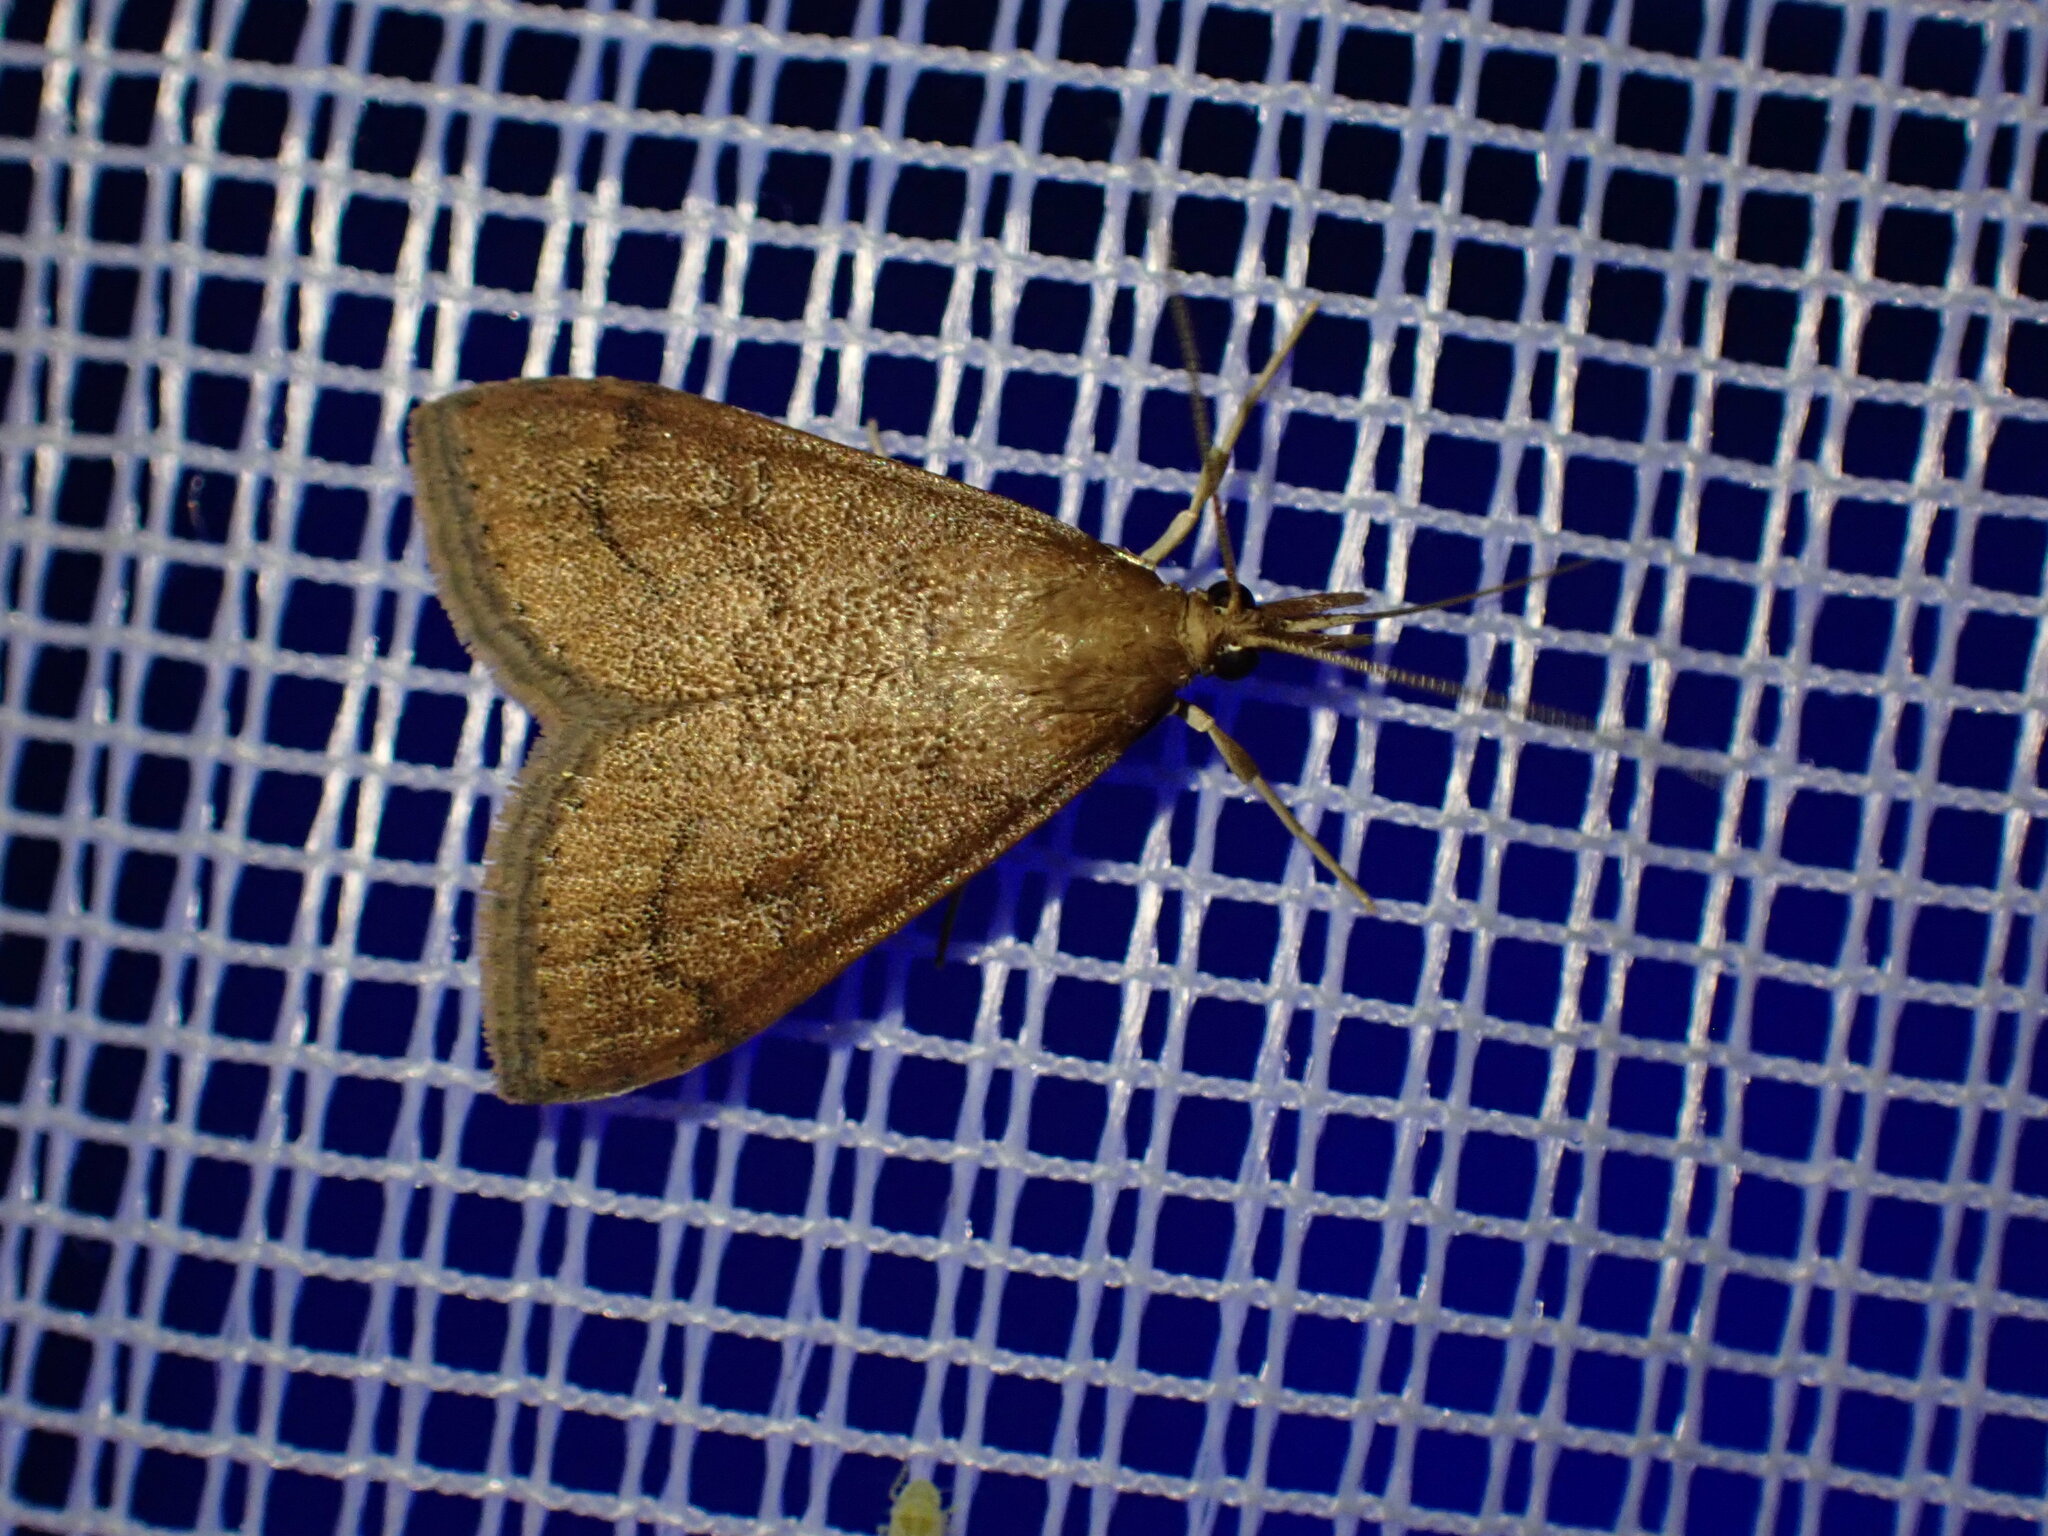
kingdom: Animalia
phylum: Arthropoda
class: Insecta
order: Lepidoptera
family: Crambidae
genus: Udea
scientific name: Udea rubigalis
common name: Celery leaftier moth
